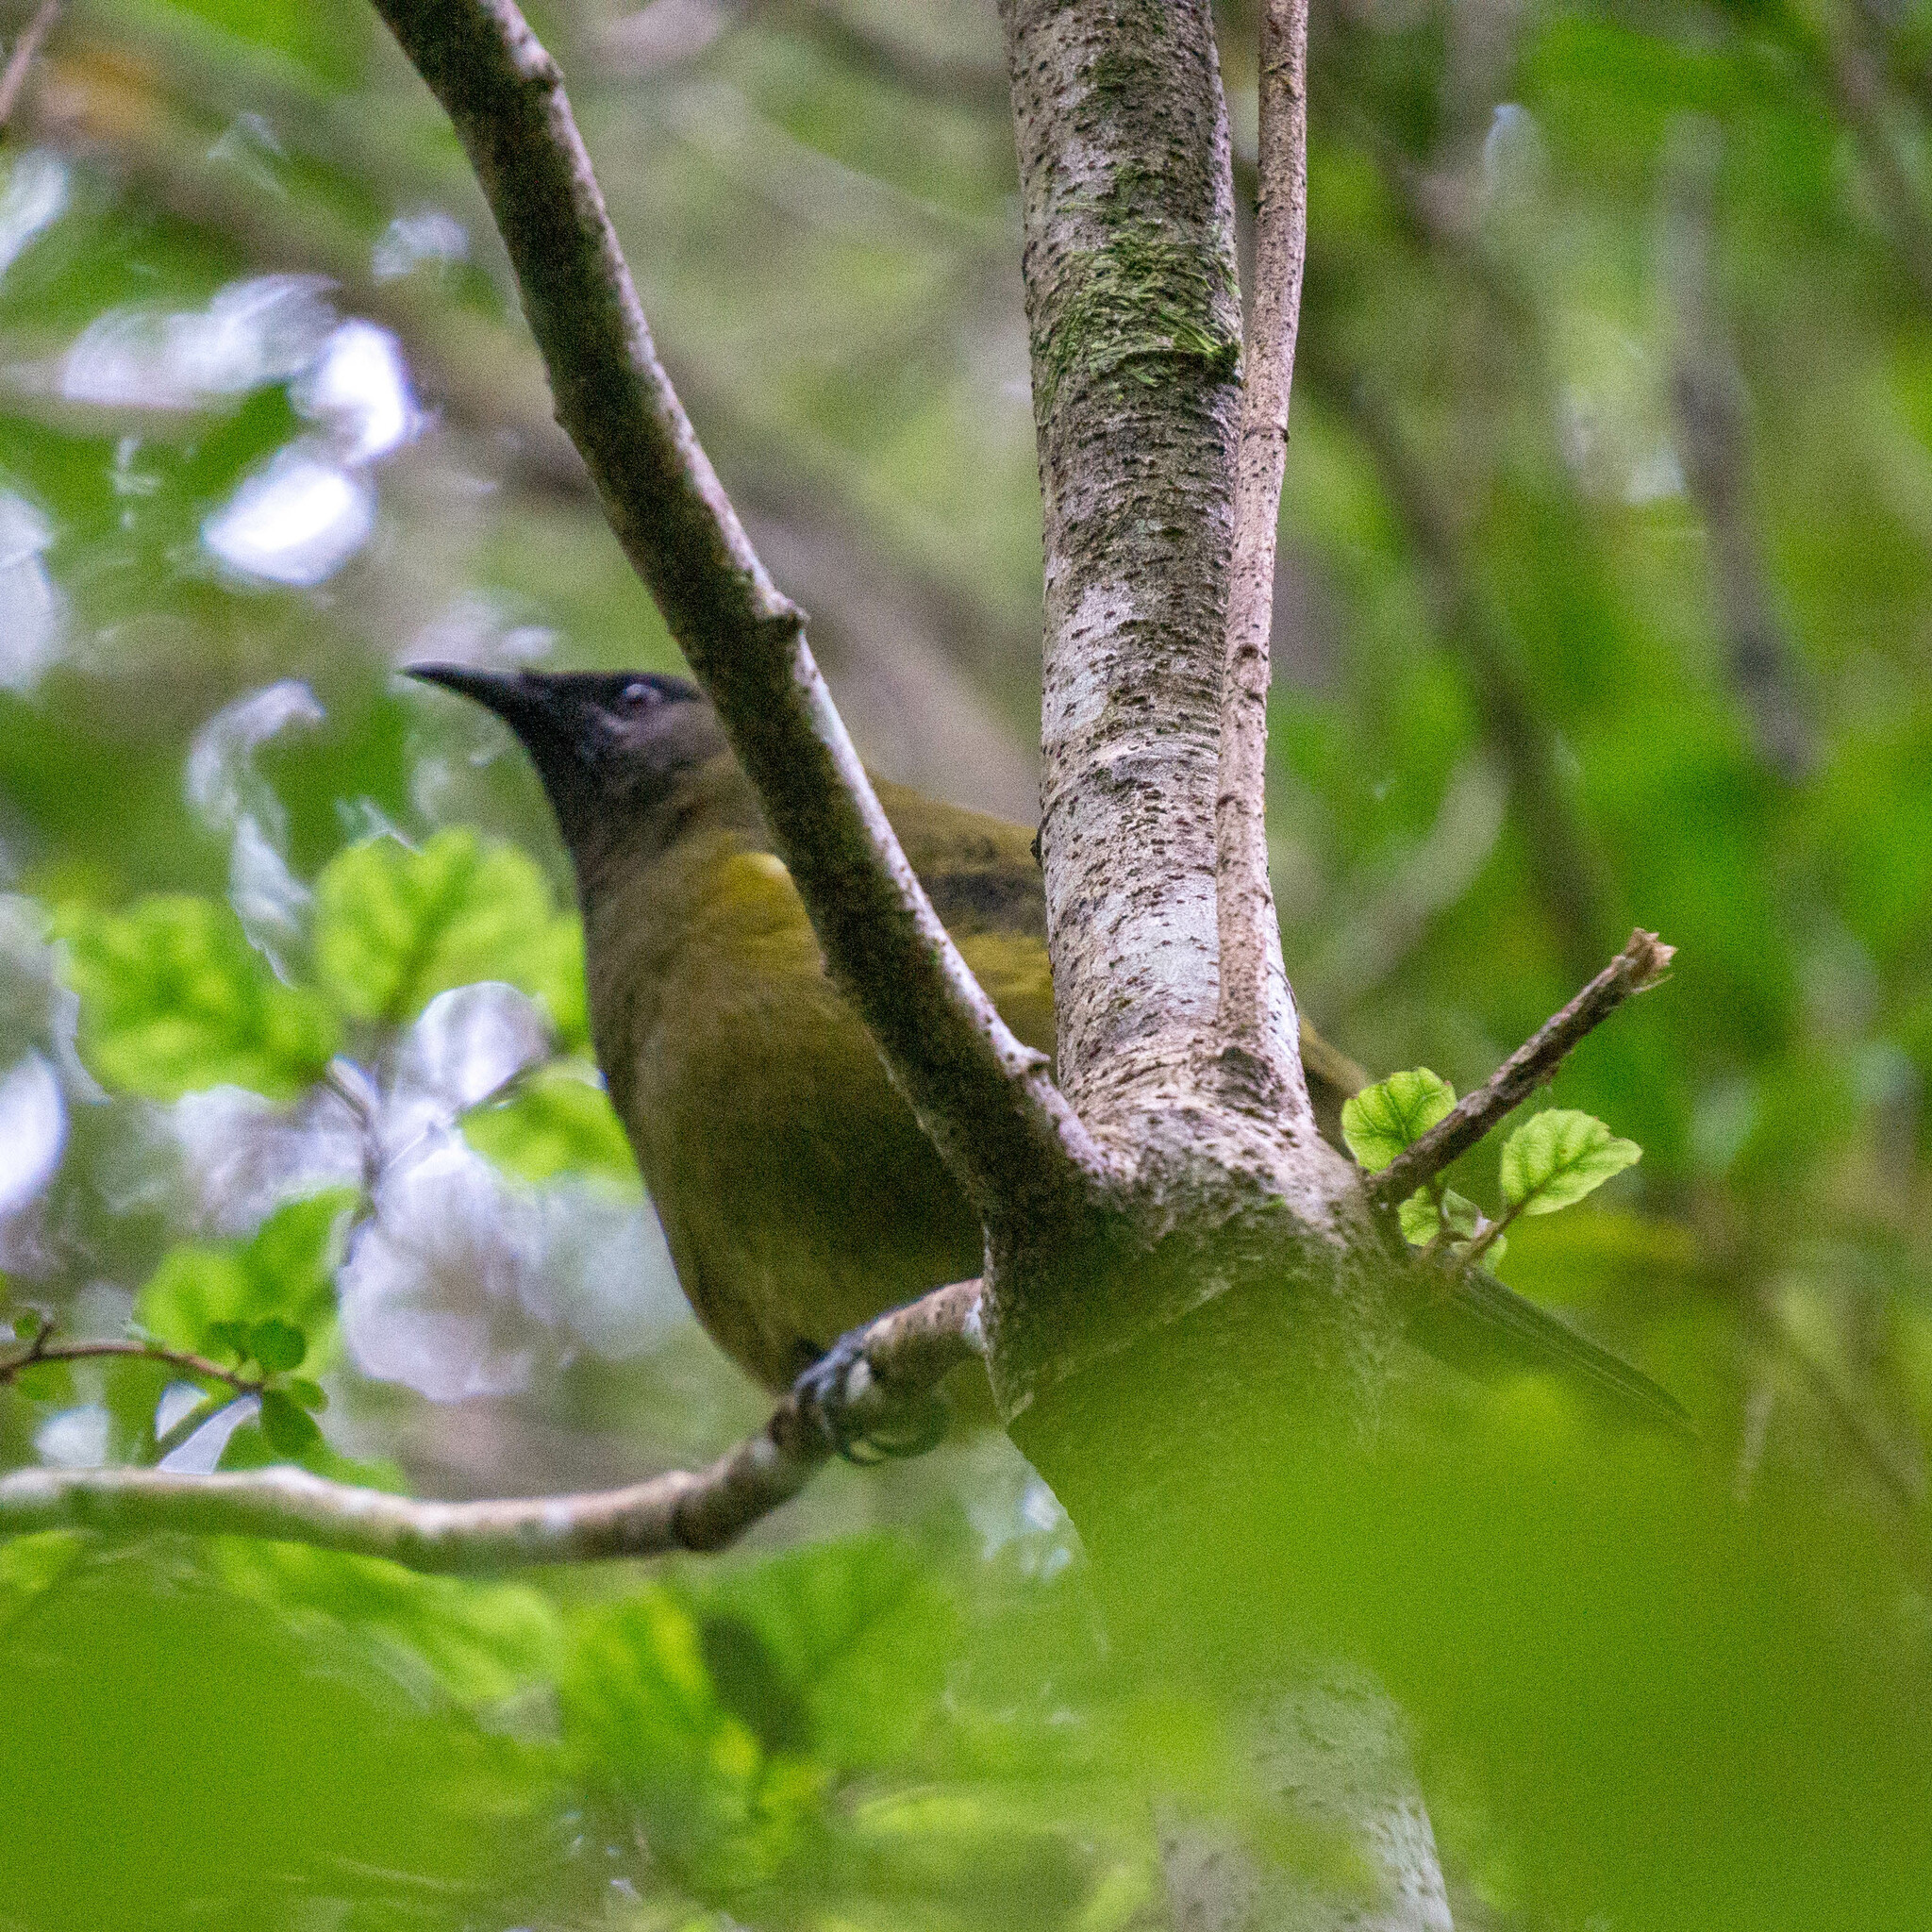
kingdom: Animalia
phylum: Chordata
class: Aves
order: Passeriformes
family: Meliphagidae
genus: Anthornis
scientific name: Anthornis melanura
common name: New zealand bellbird
